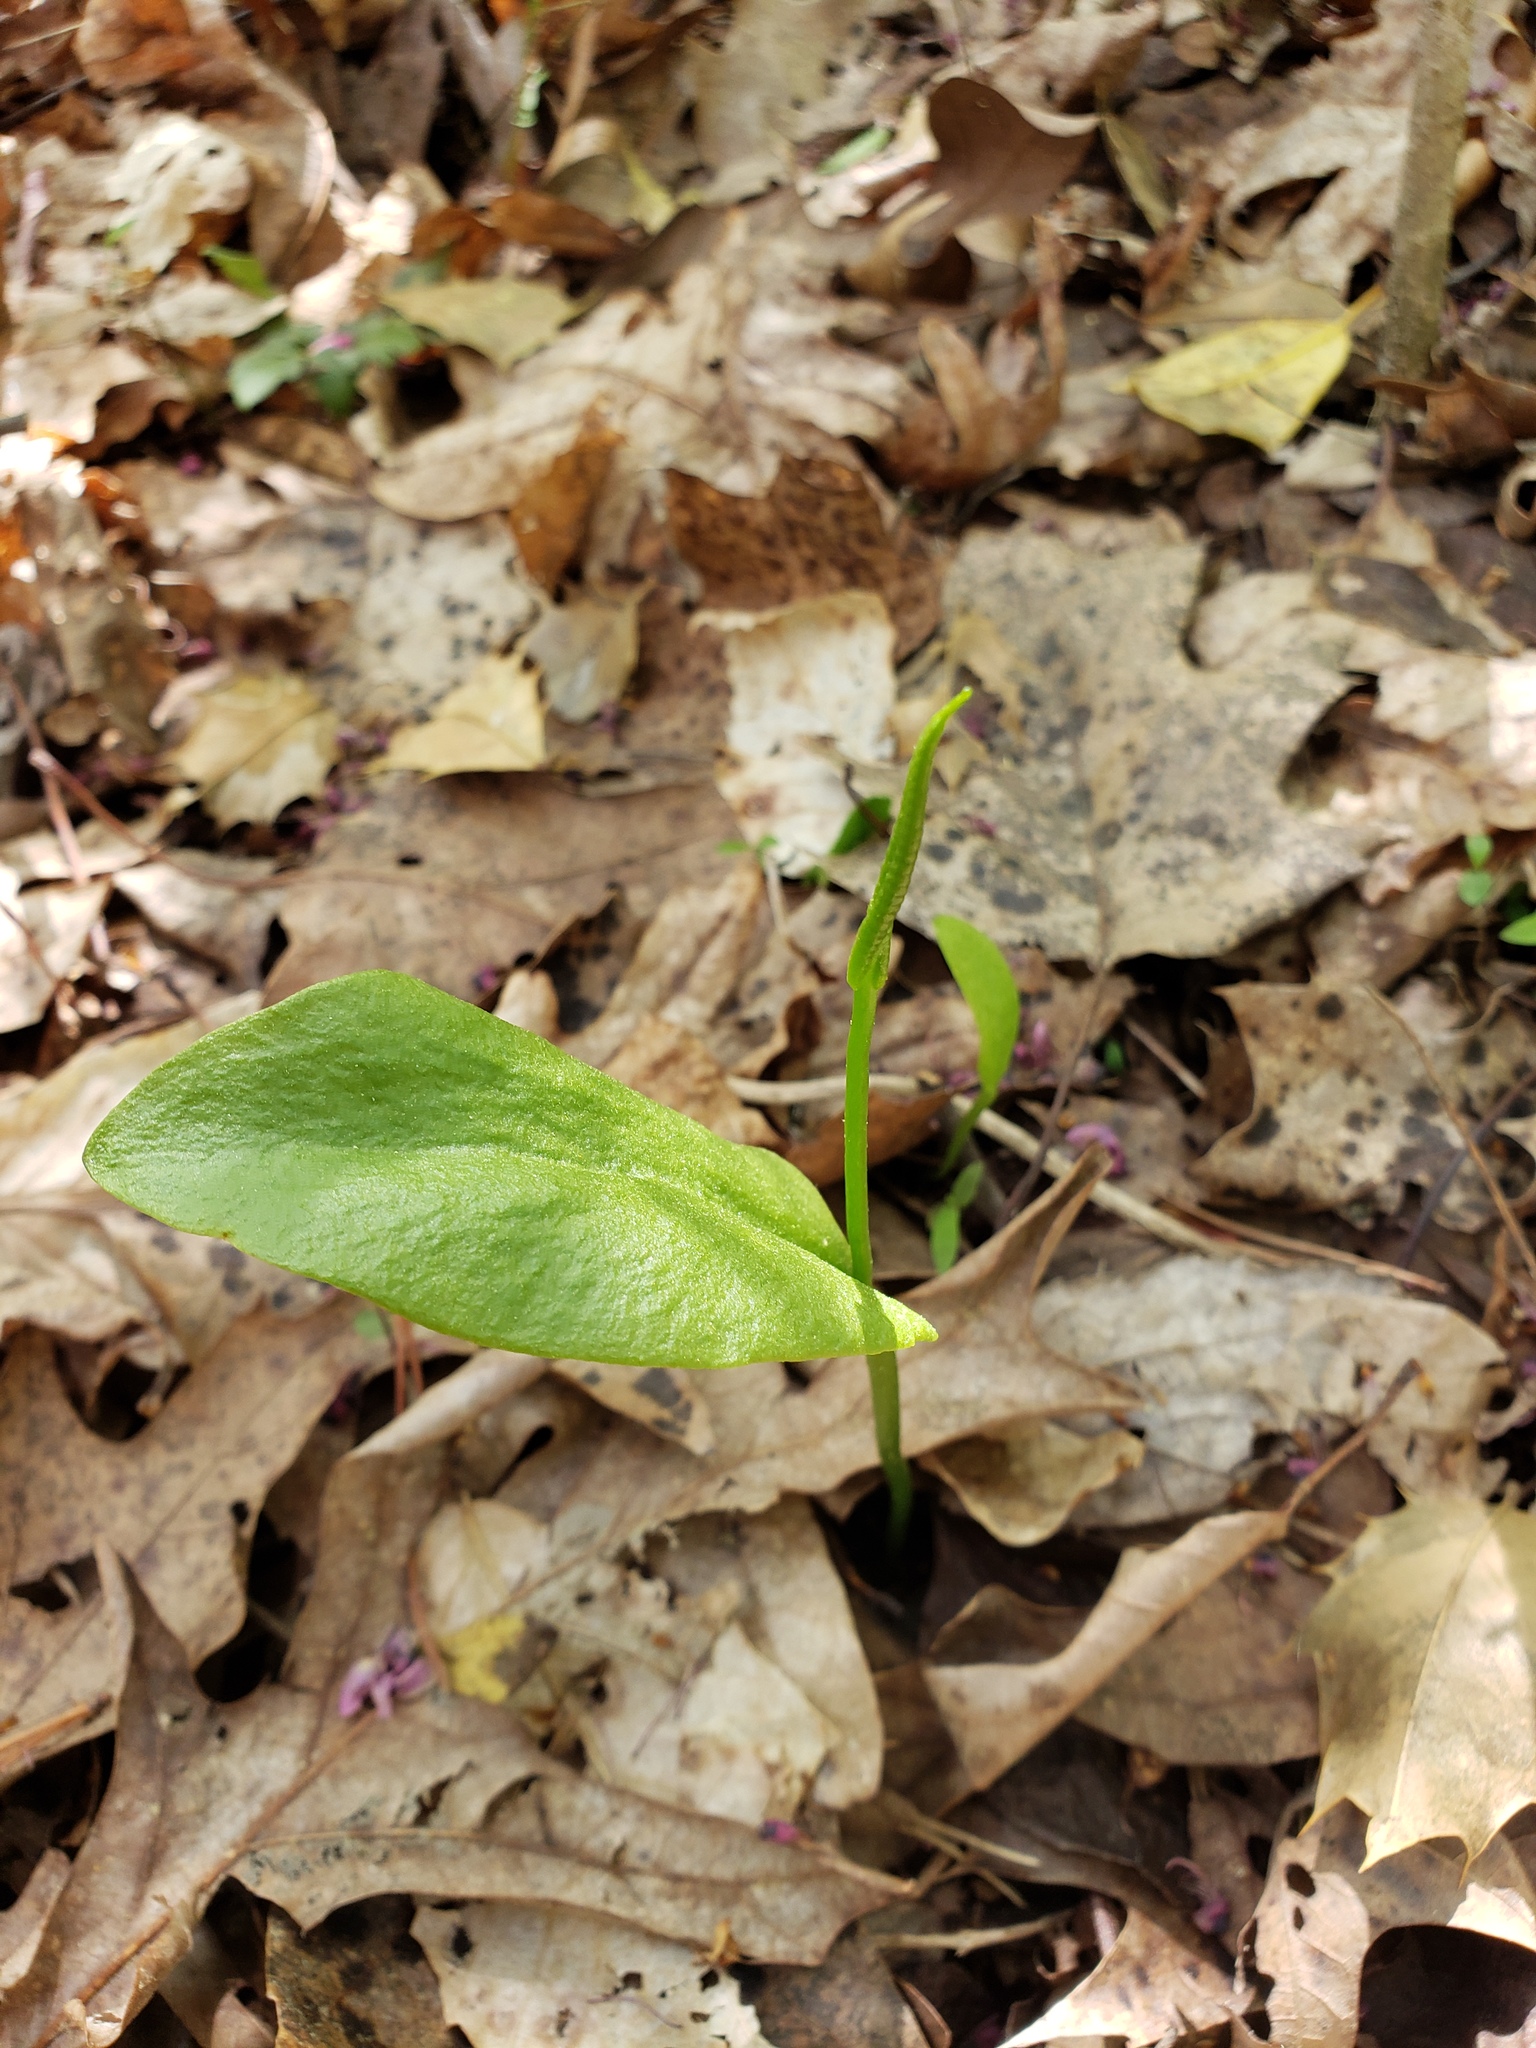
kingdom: Plantae
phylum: Tracheophyta
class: Polypodiopsida
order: Ophioglossales
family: Ophioglossaceae
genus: Ophioglossum
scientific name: Ophioglossum vulgatum
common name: Adder's-tongue
